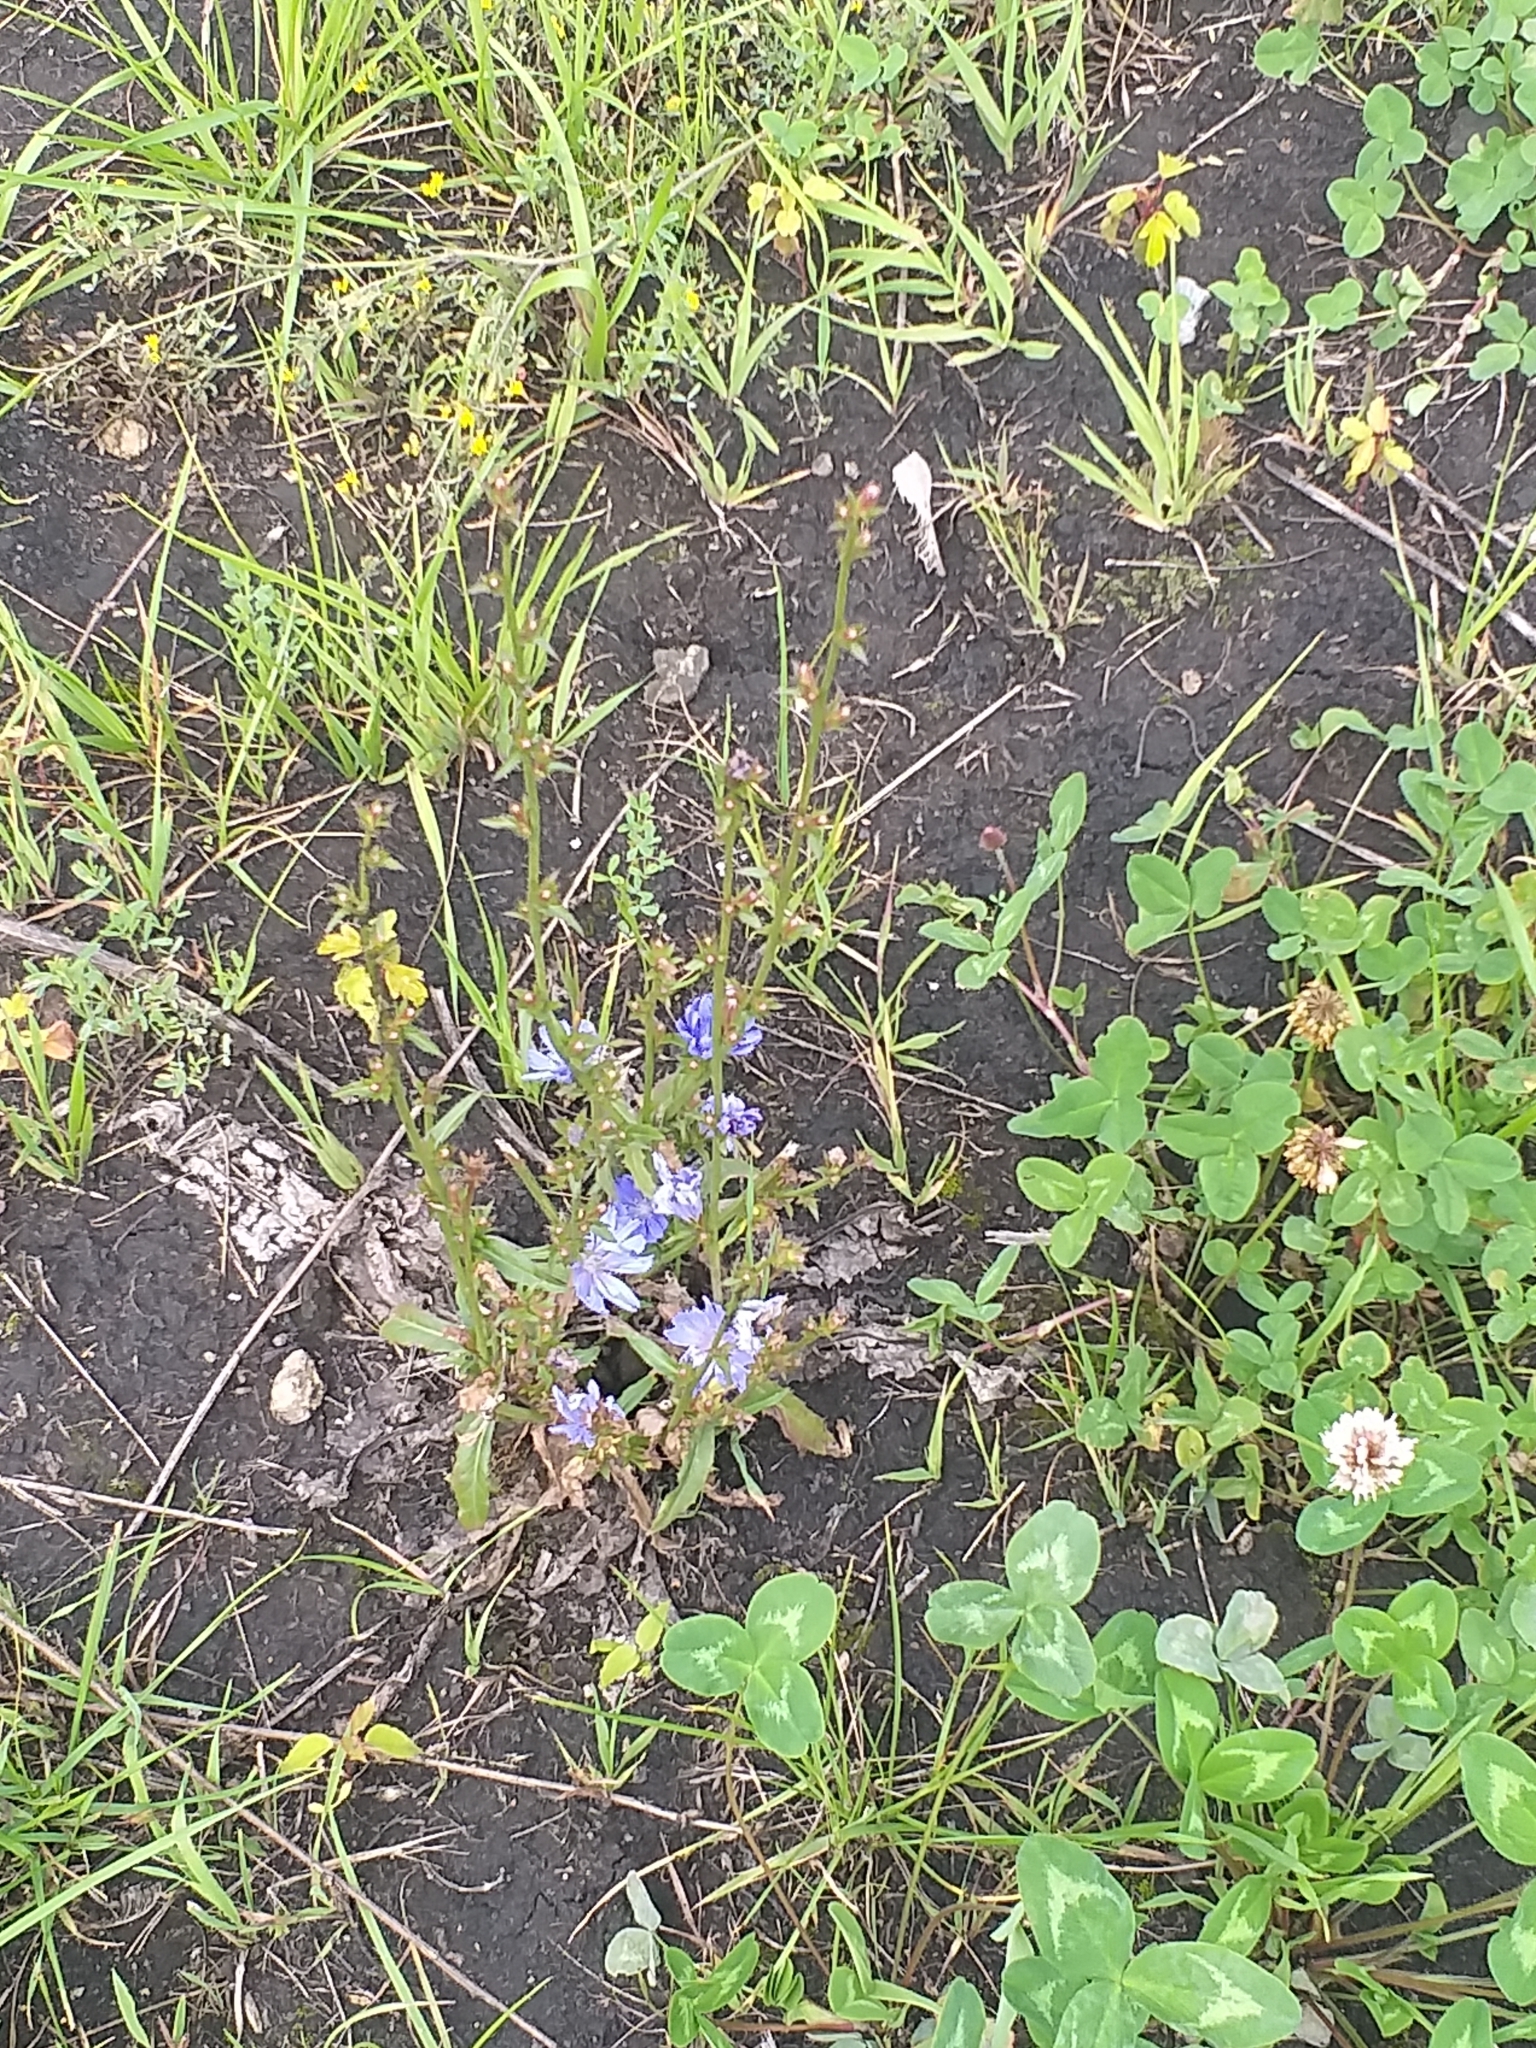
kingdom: Plantae
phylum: Tracheophyta
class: Magnoliopsida
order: Asterales
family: Asteraceae
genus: Cichorium
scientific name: Cichorium intybus
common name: Chicory
